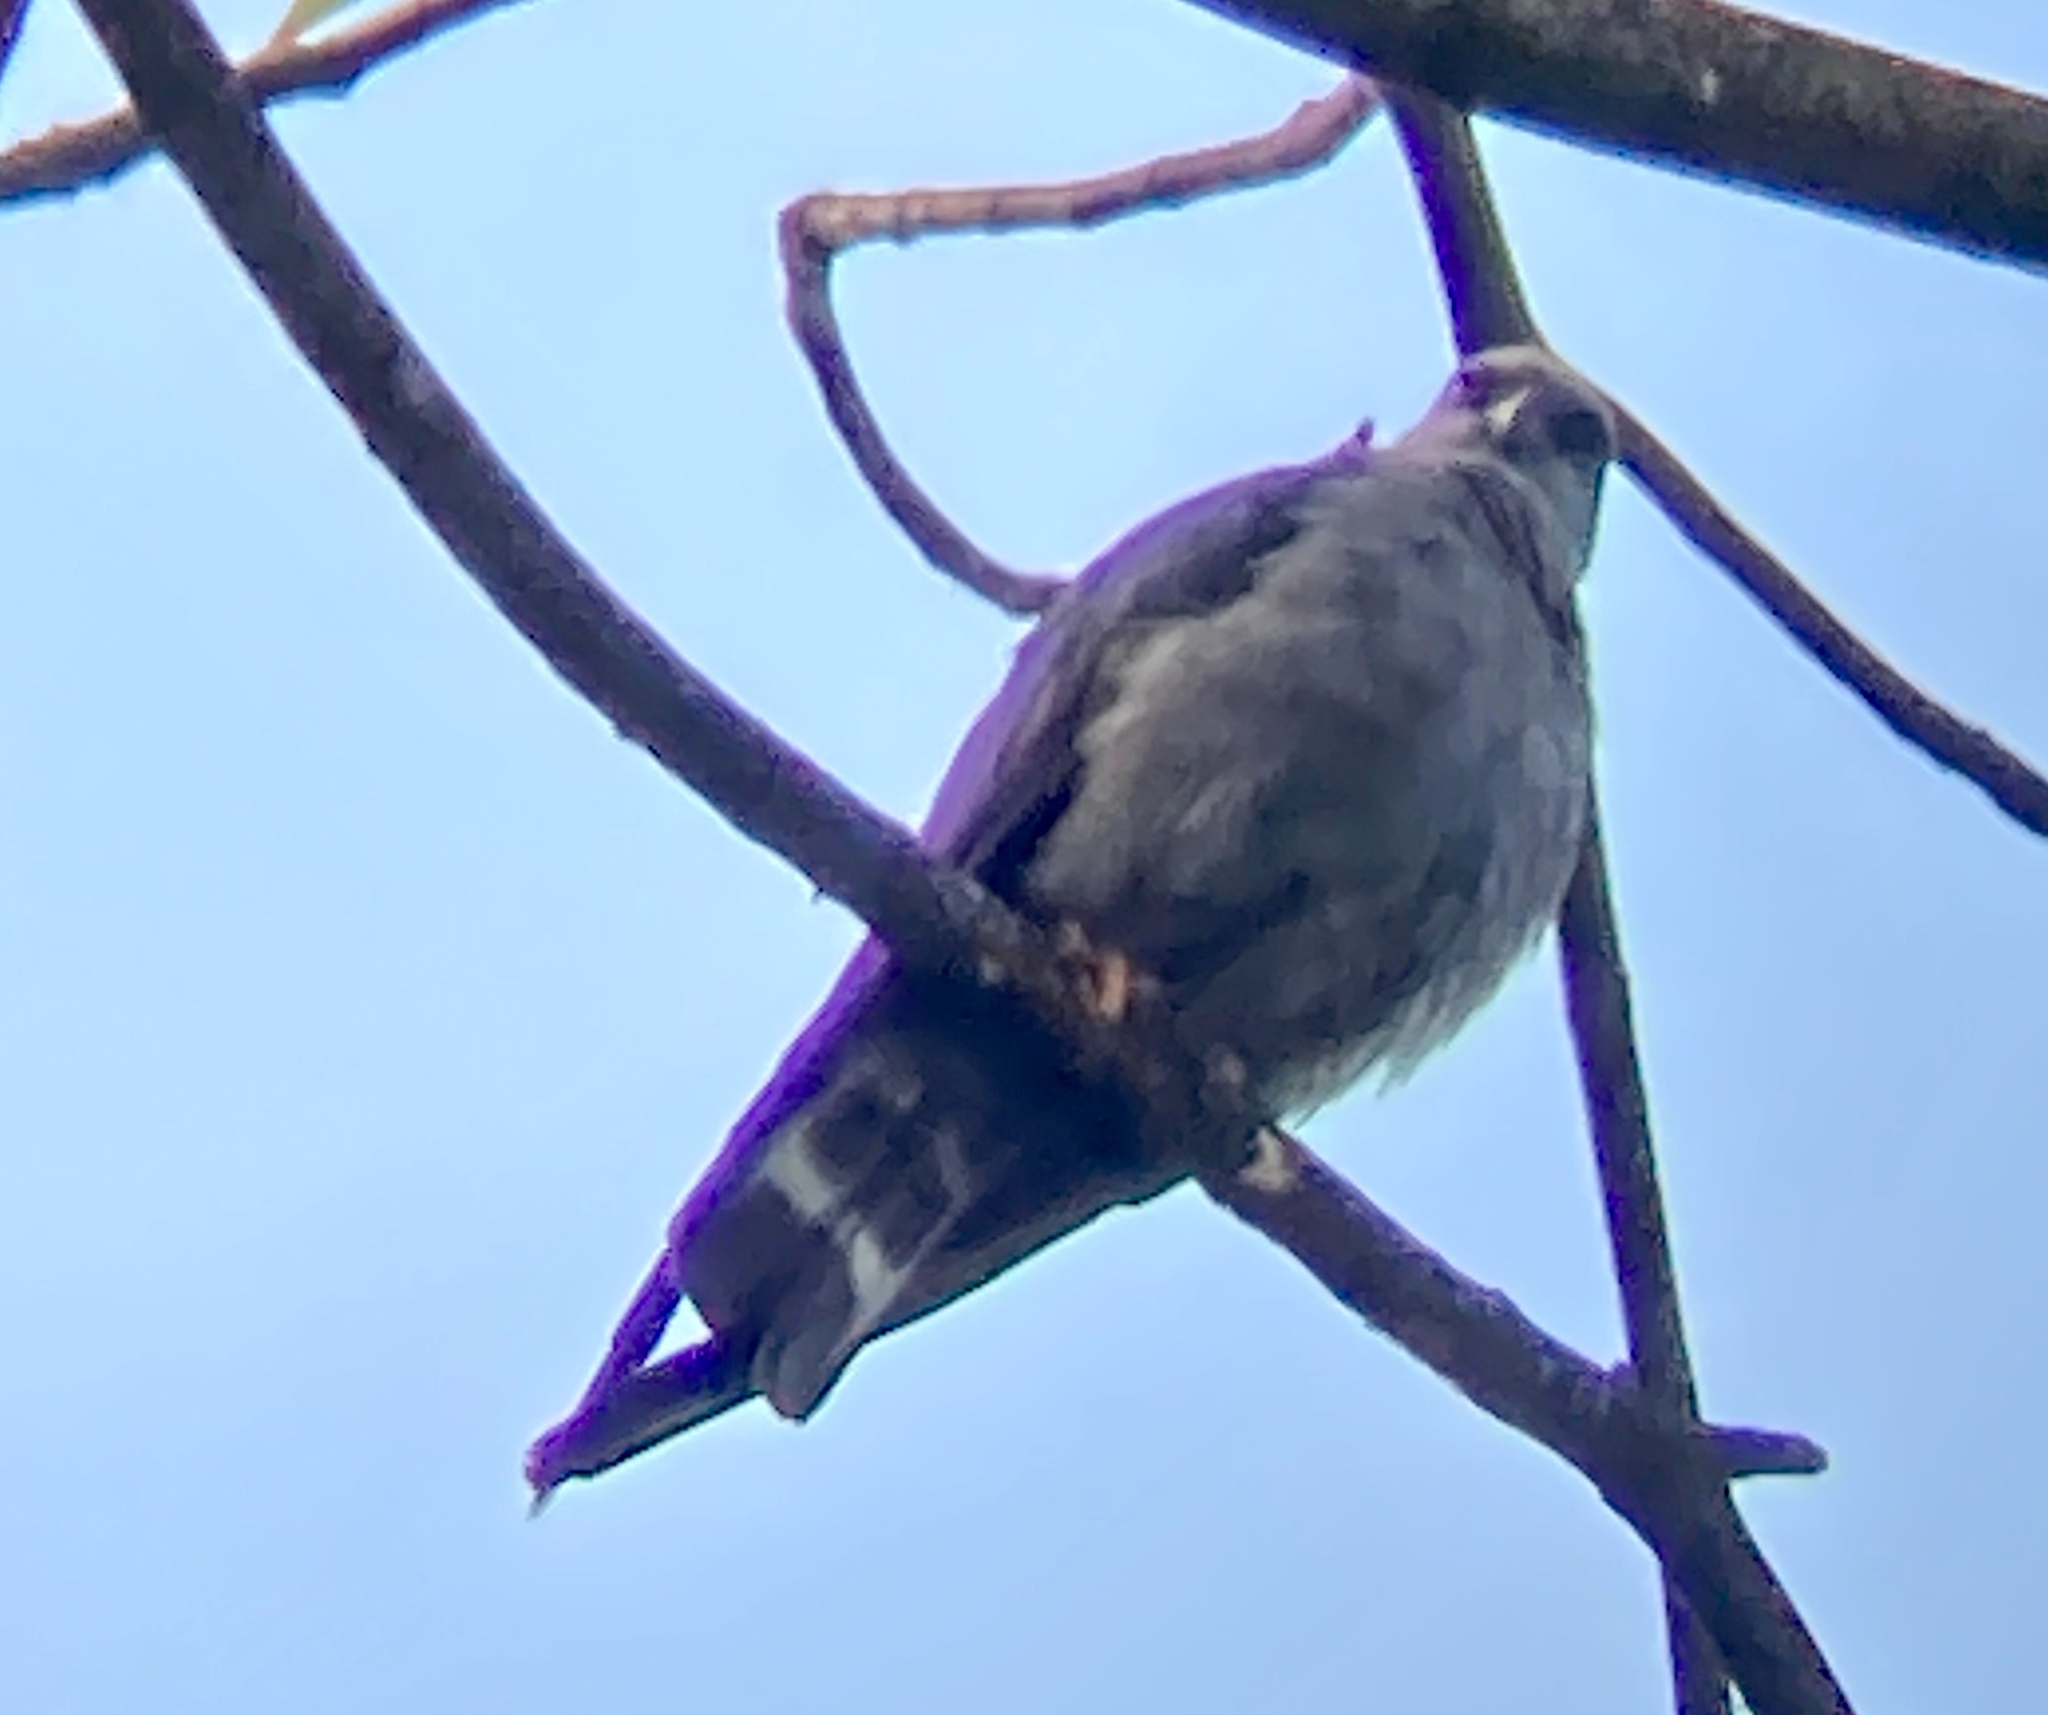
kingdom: Animalia
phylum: Chordata
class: Aves
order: Accipitriformes
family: Accipitridae
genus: Ictinia
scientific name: Ictinia plumbea
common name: Plumbeous kite
